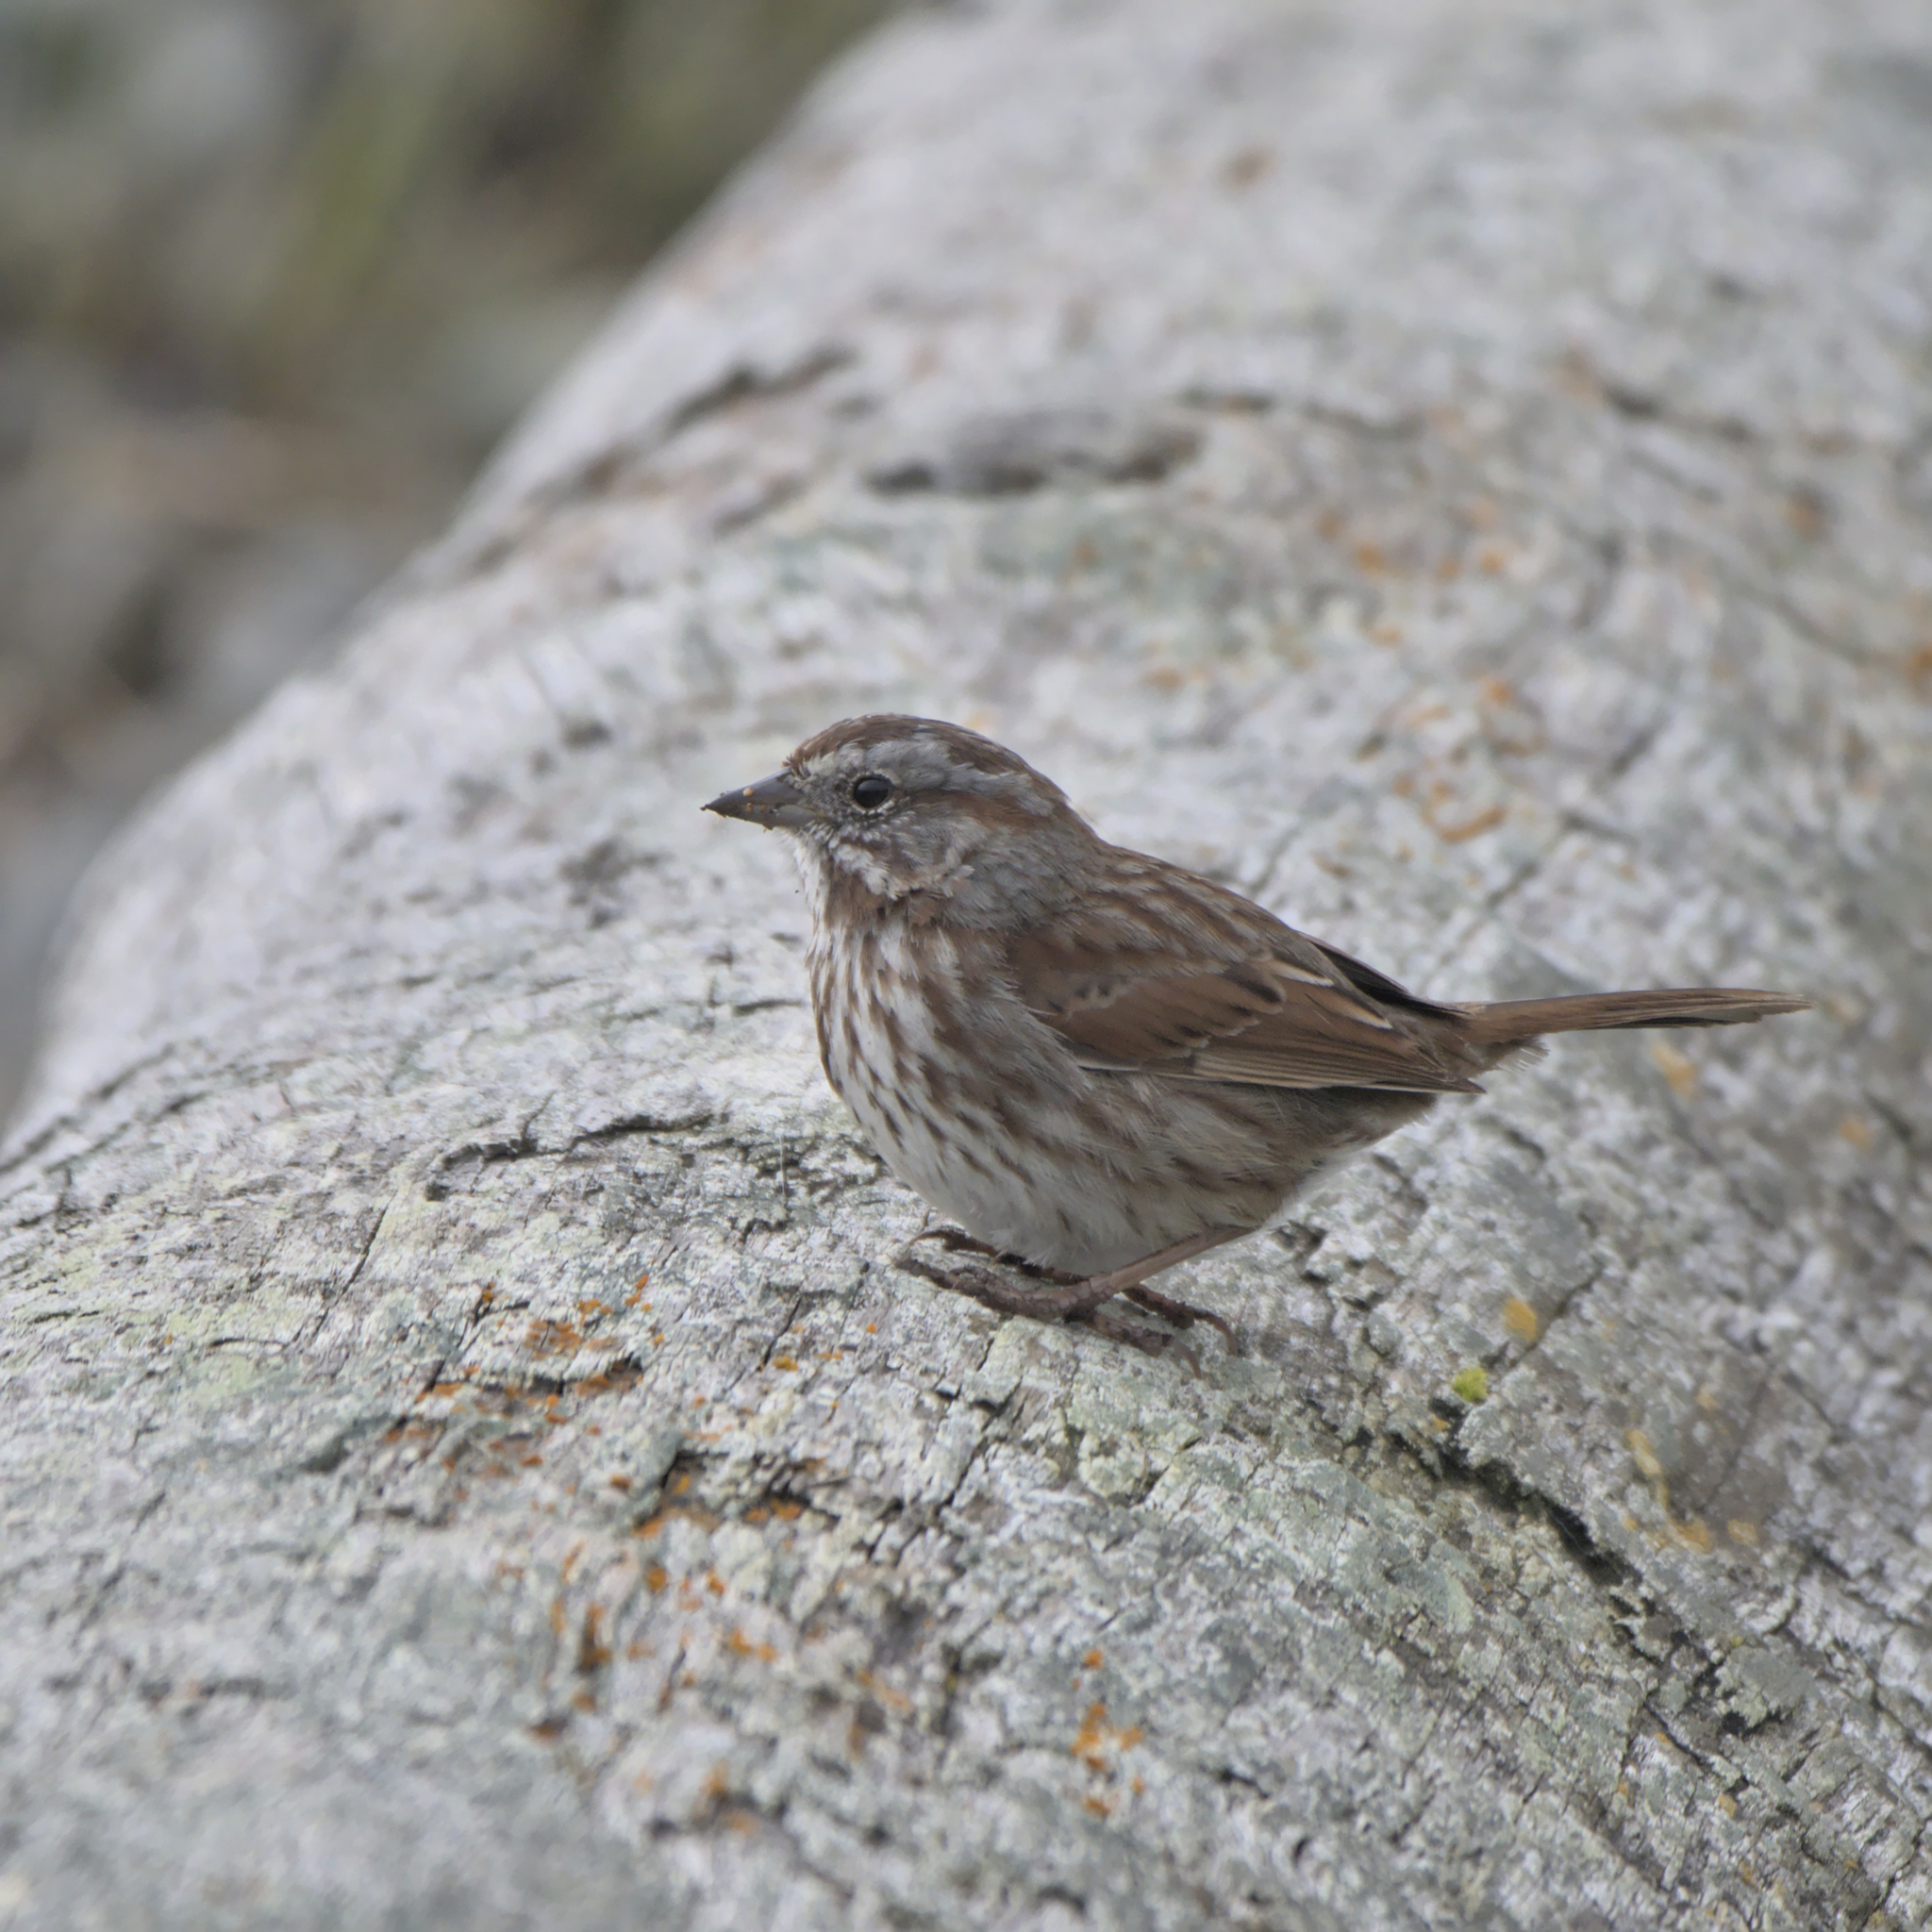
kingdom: Animalia
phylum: Chordata
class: Aves
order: Passeriformes
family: Passerellidae
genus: Melospiza
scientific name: Melospiza melodia
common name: Song sparrow
